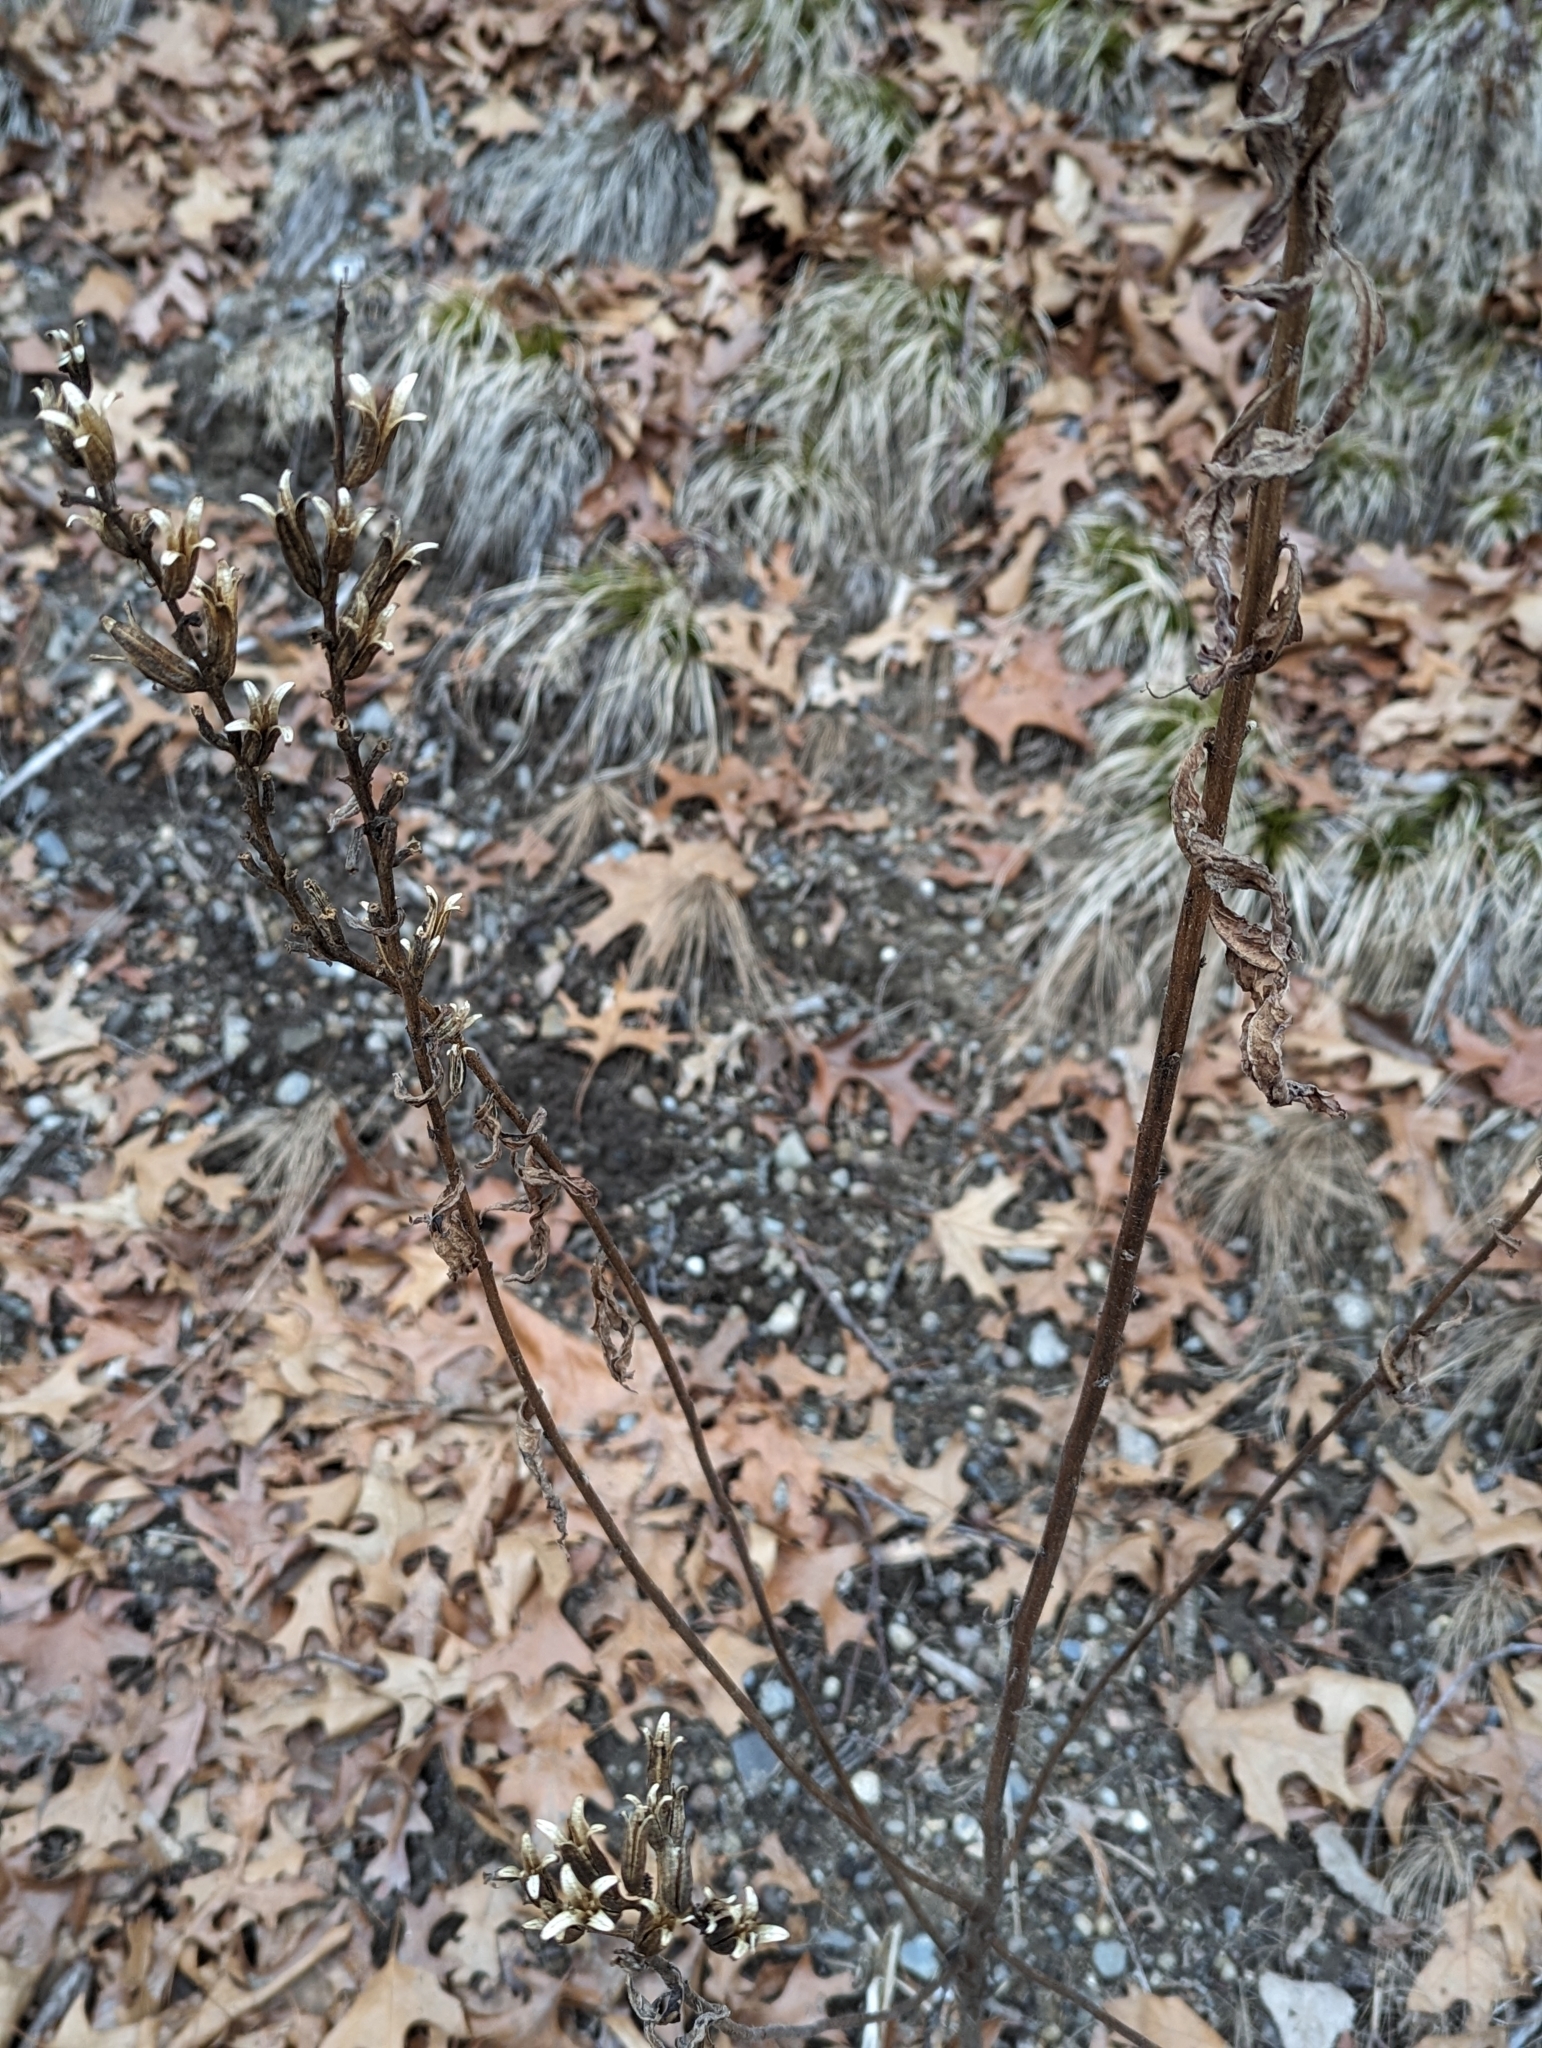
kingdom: Plantae
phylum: Tracheophyta
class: Magnoliopsida
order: Myrtales
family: Onagraceae
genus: Oenothera
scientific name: Oenothera biennis
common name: Common evening-primrose
